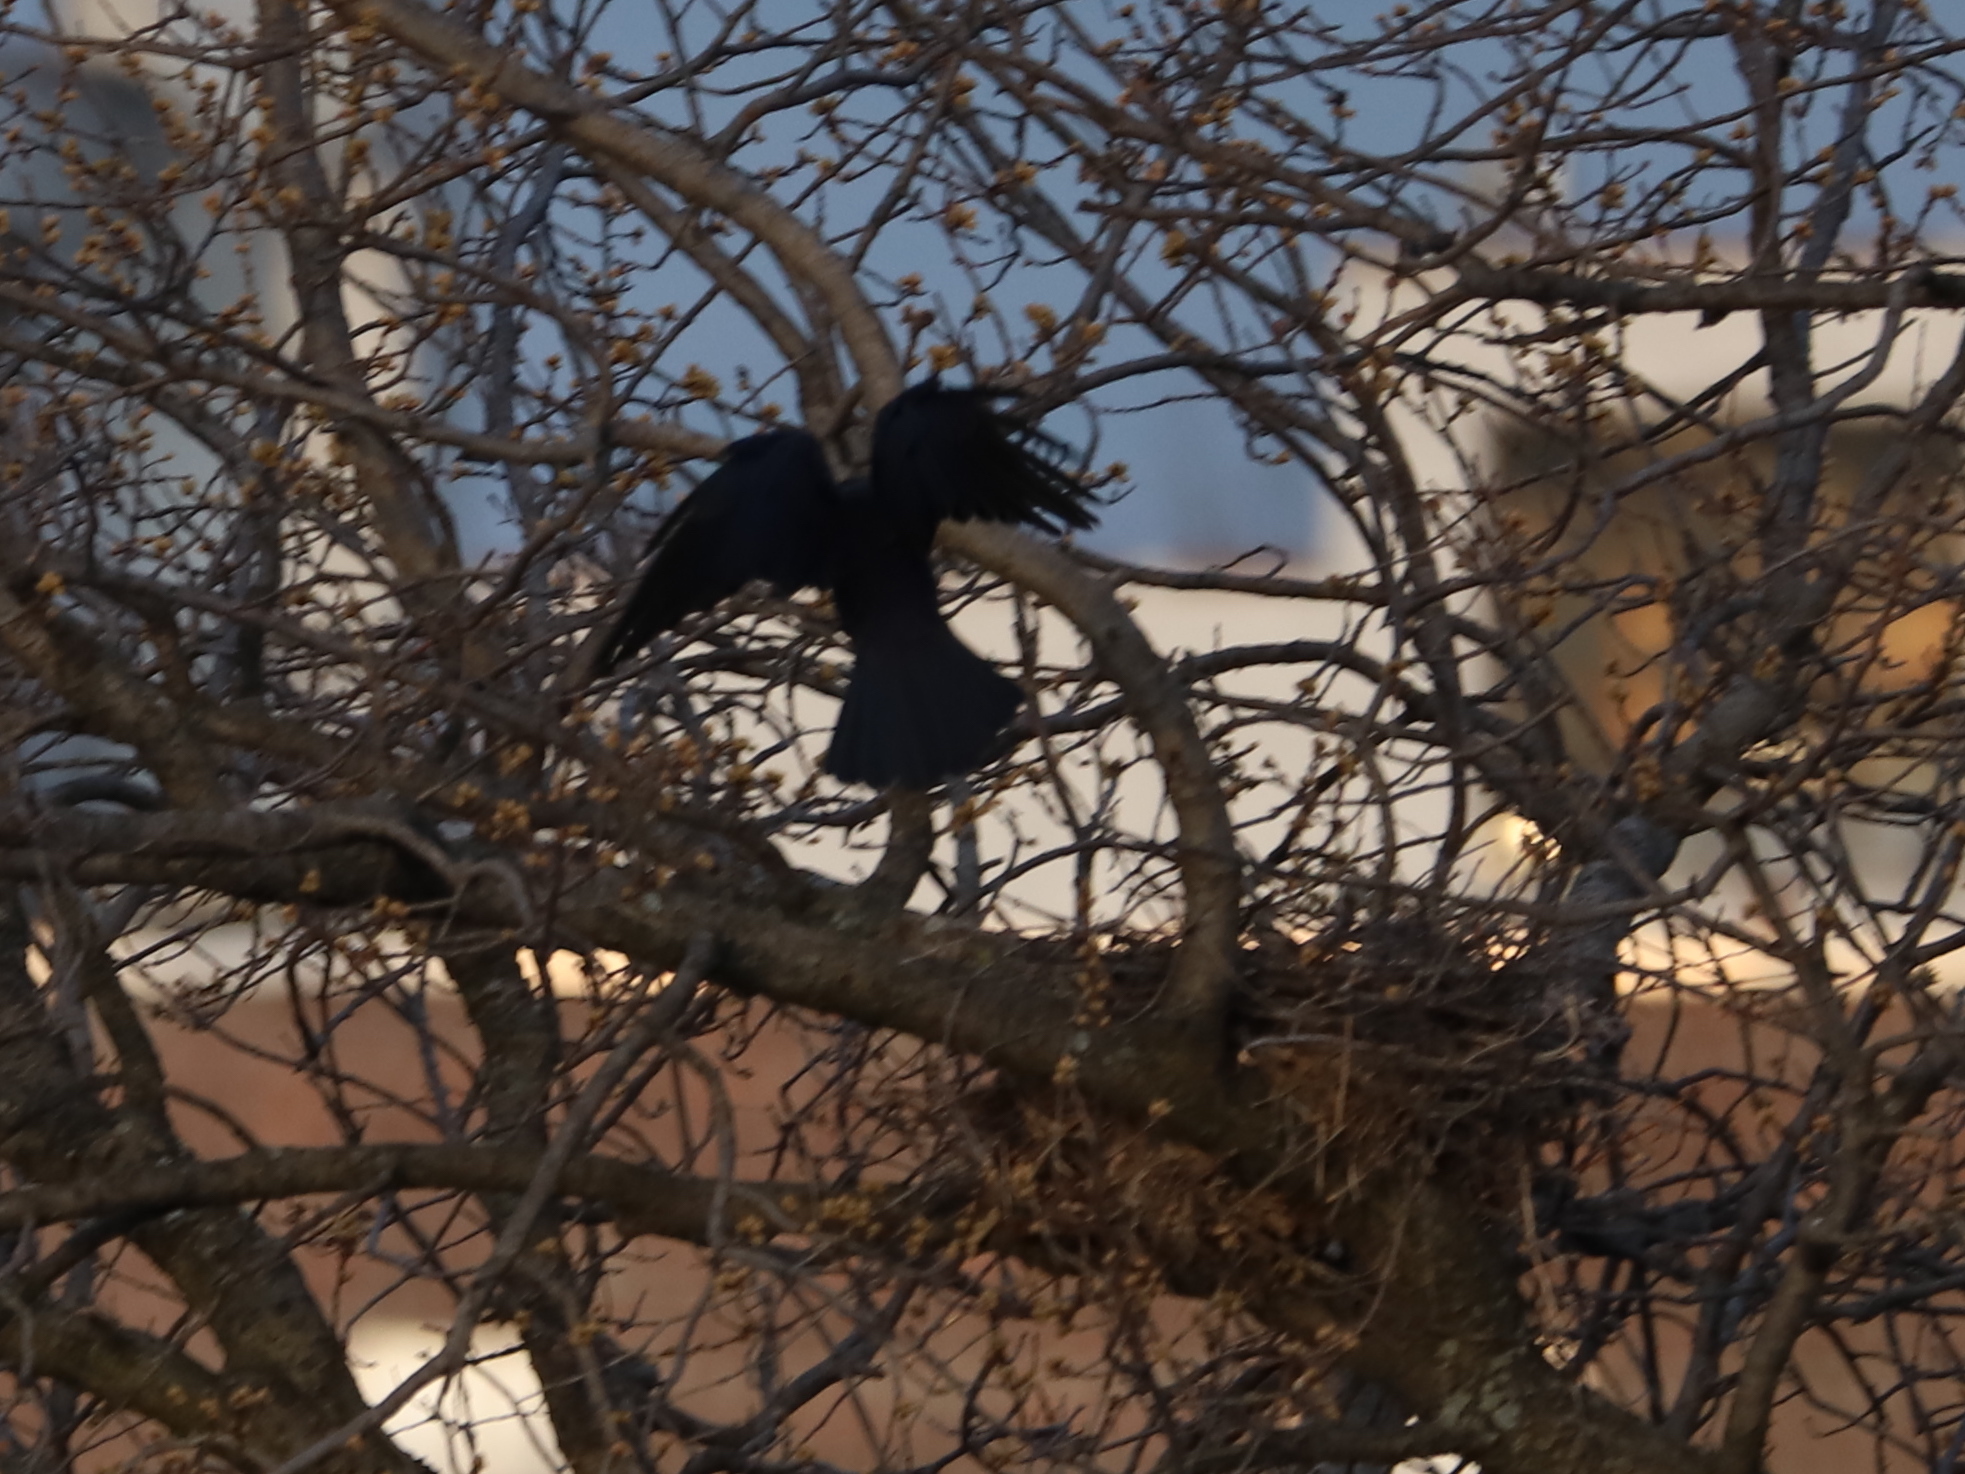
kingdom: Animalia
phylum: Chordata
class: Aves
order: Passeriformes
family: Corvidae
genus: Corvus
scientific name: Corvus brachyrhynchos
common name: American crow
